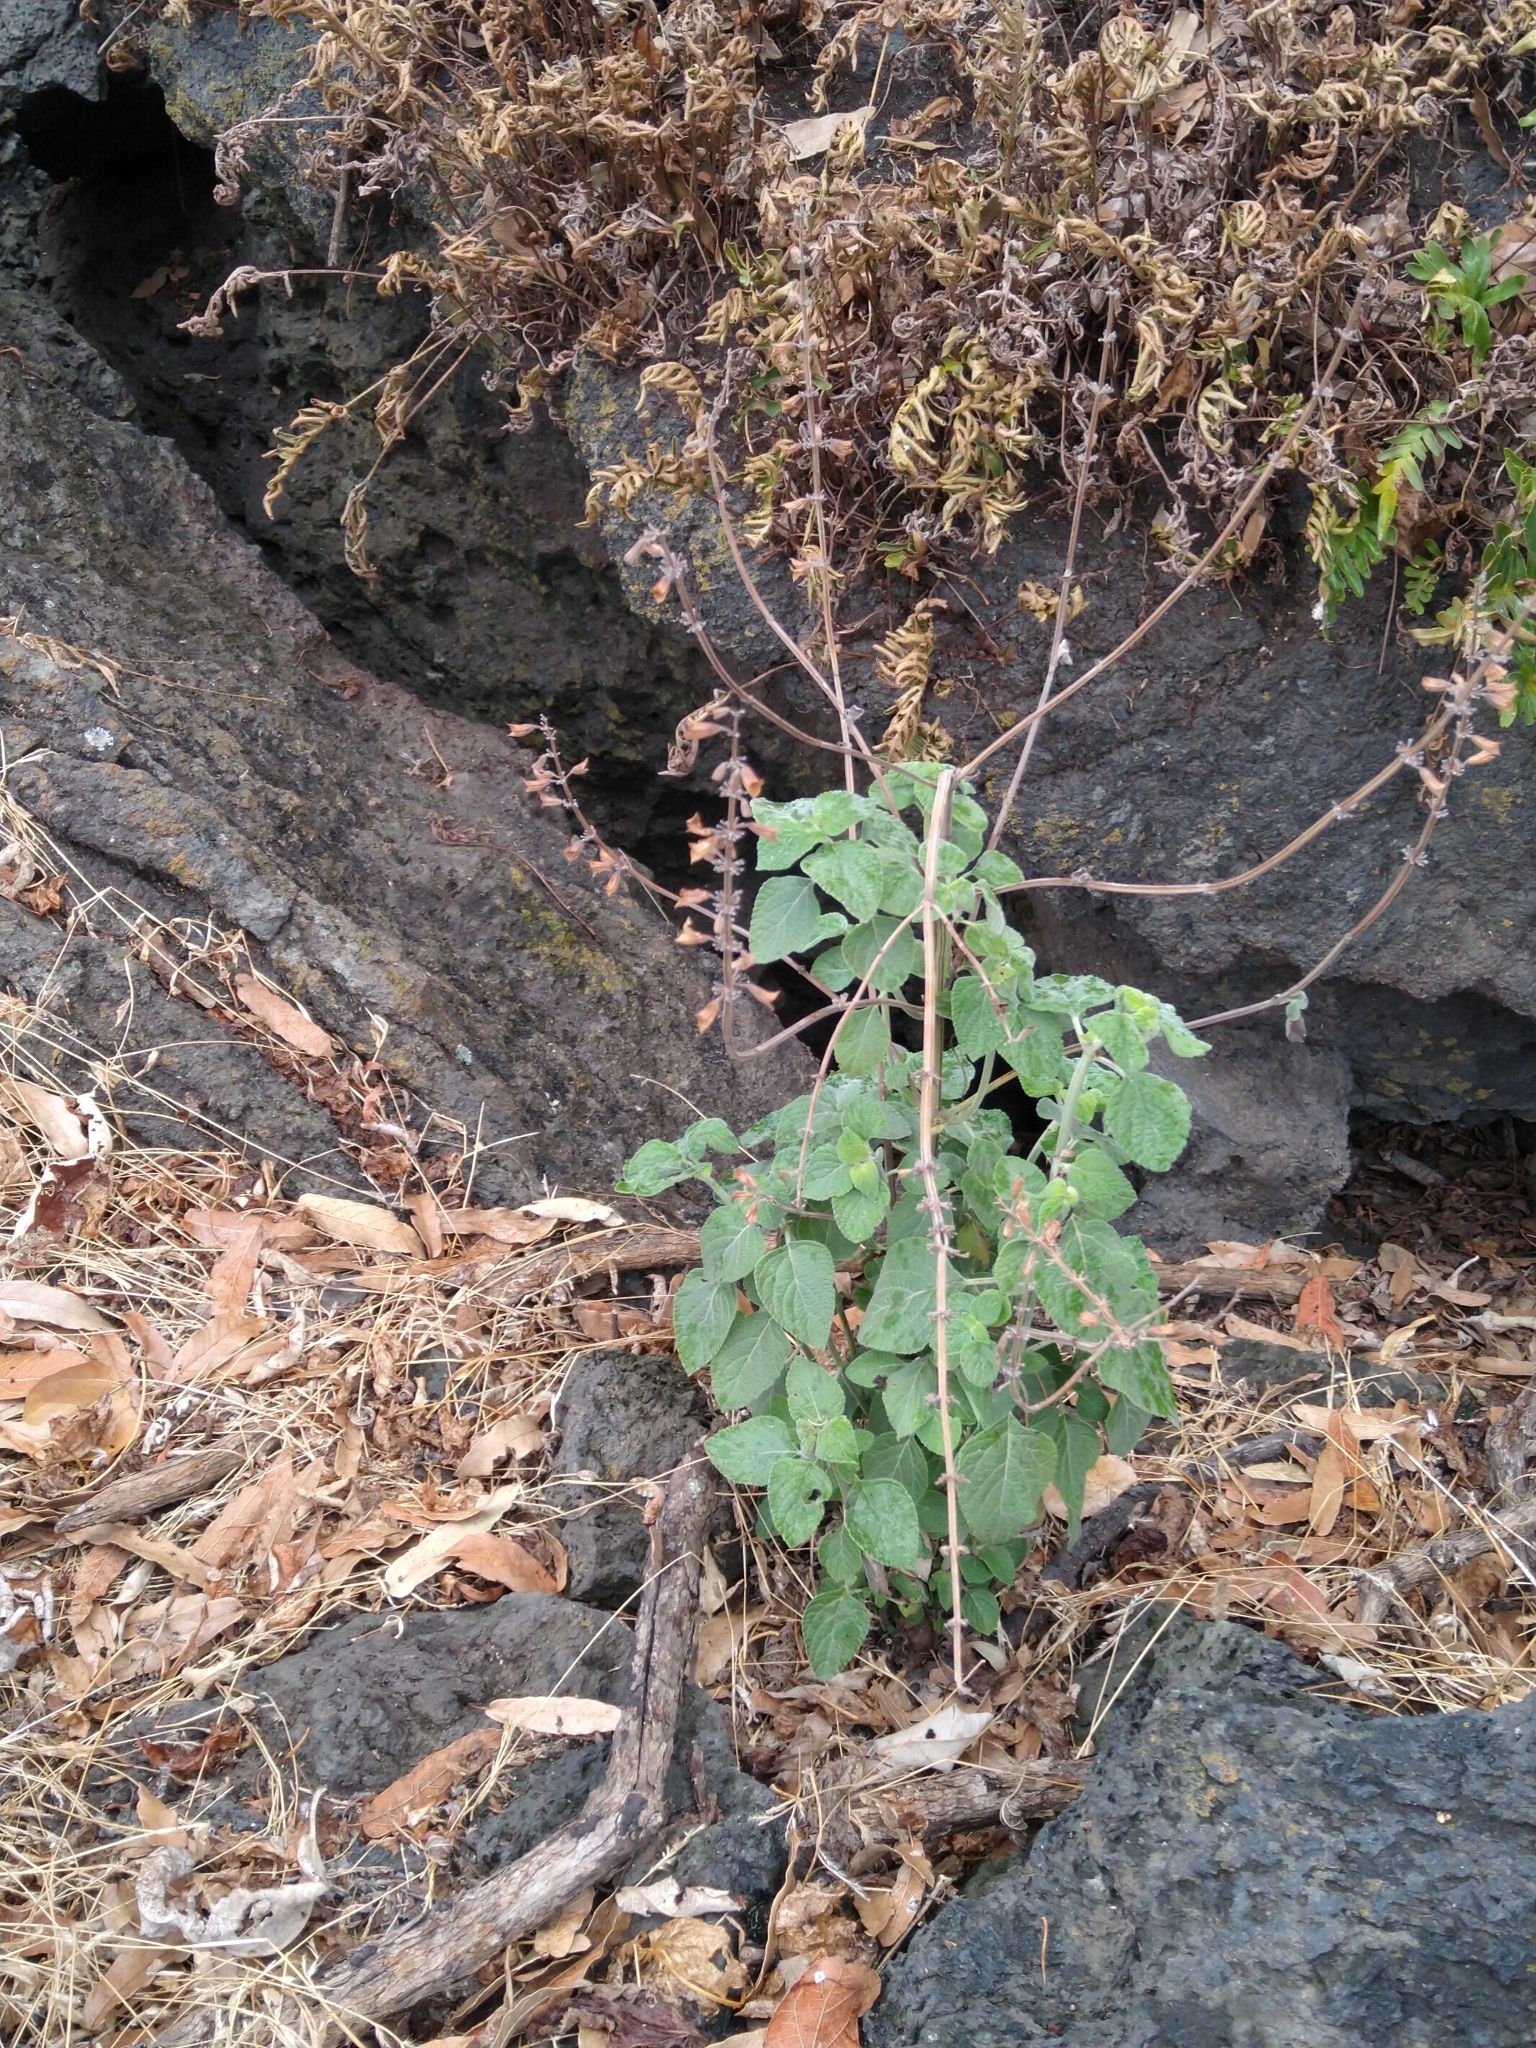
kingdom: Plantae
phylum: Tracheophyta
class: Magnoliopsida
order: Lamiales
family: Lamiaceae
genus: Salvia
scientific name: Salvia mexicana
